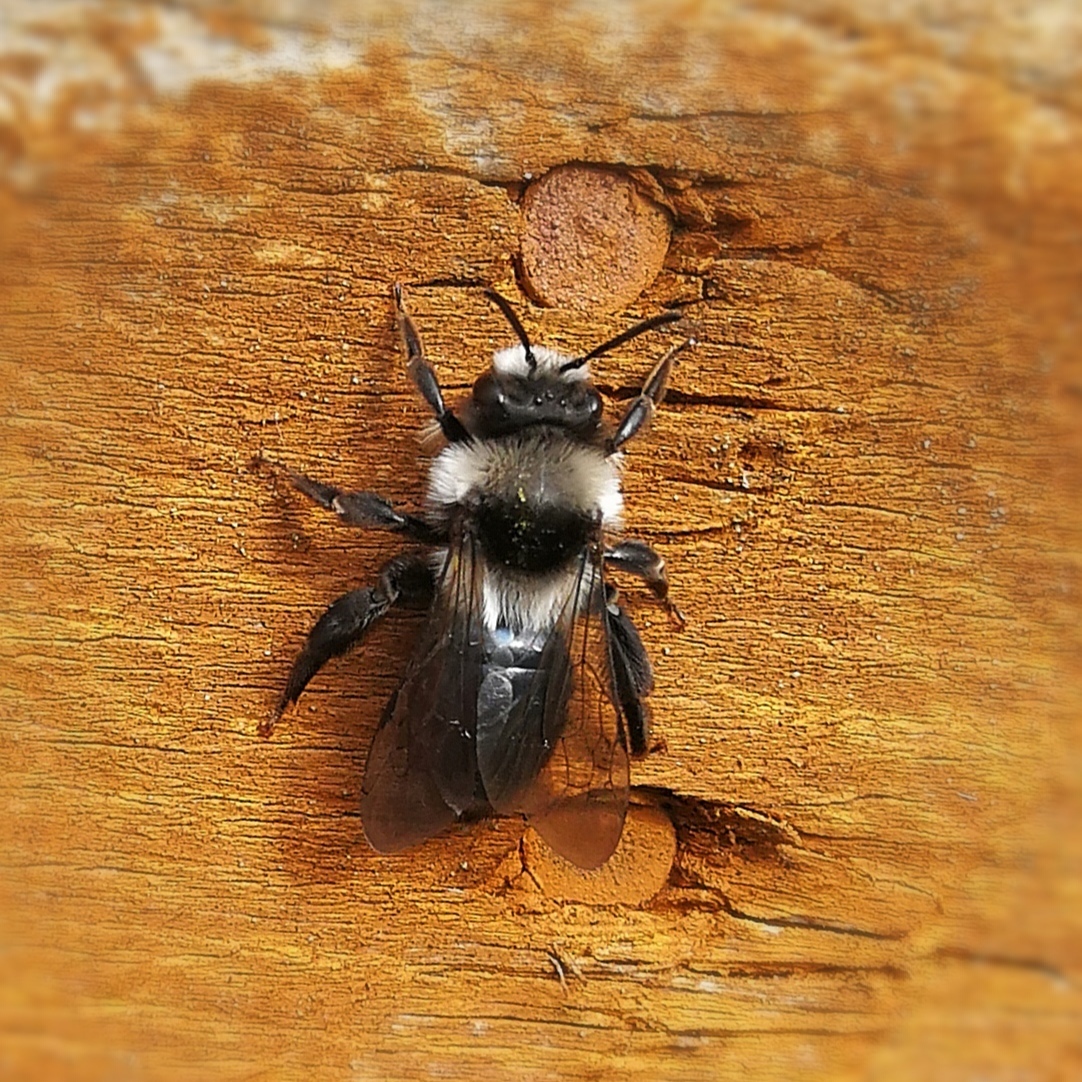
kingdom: Animalia
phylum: Arthropoda
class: Insecta
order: Hymenoptera
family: Andrenidae
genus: Andrena
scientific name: Andrena cineraria
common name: Ashy mining bee
